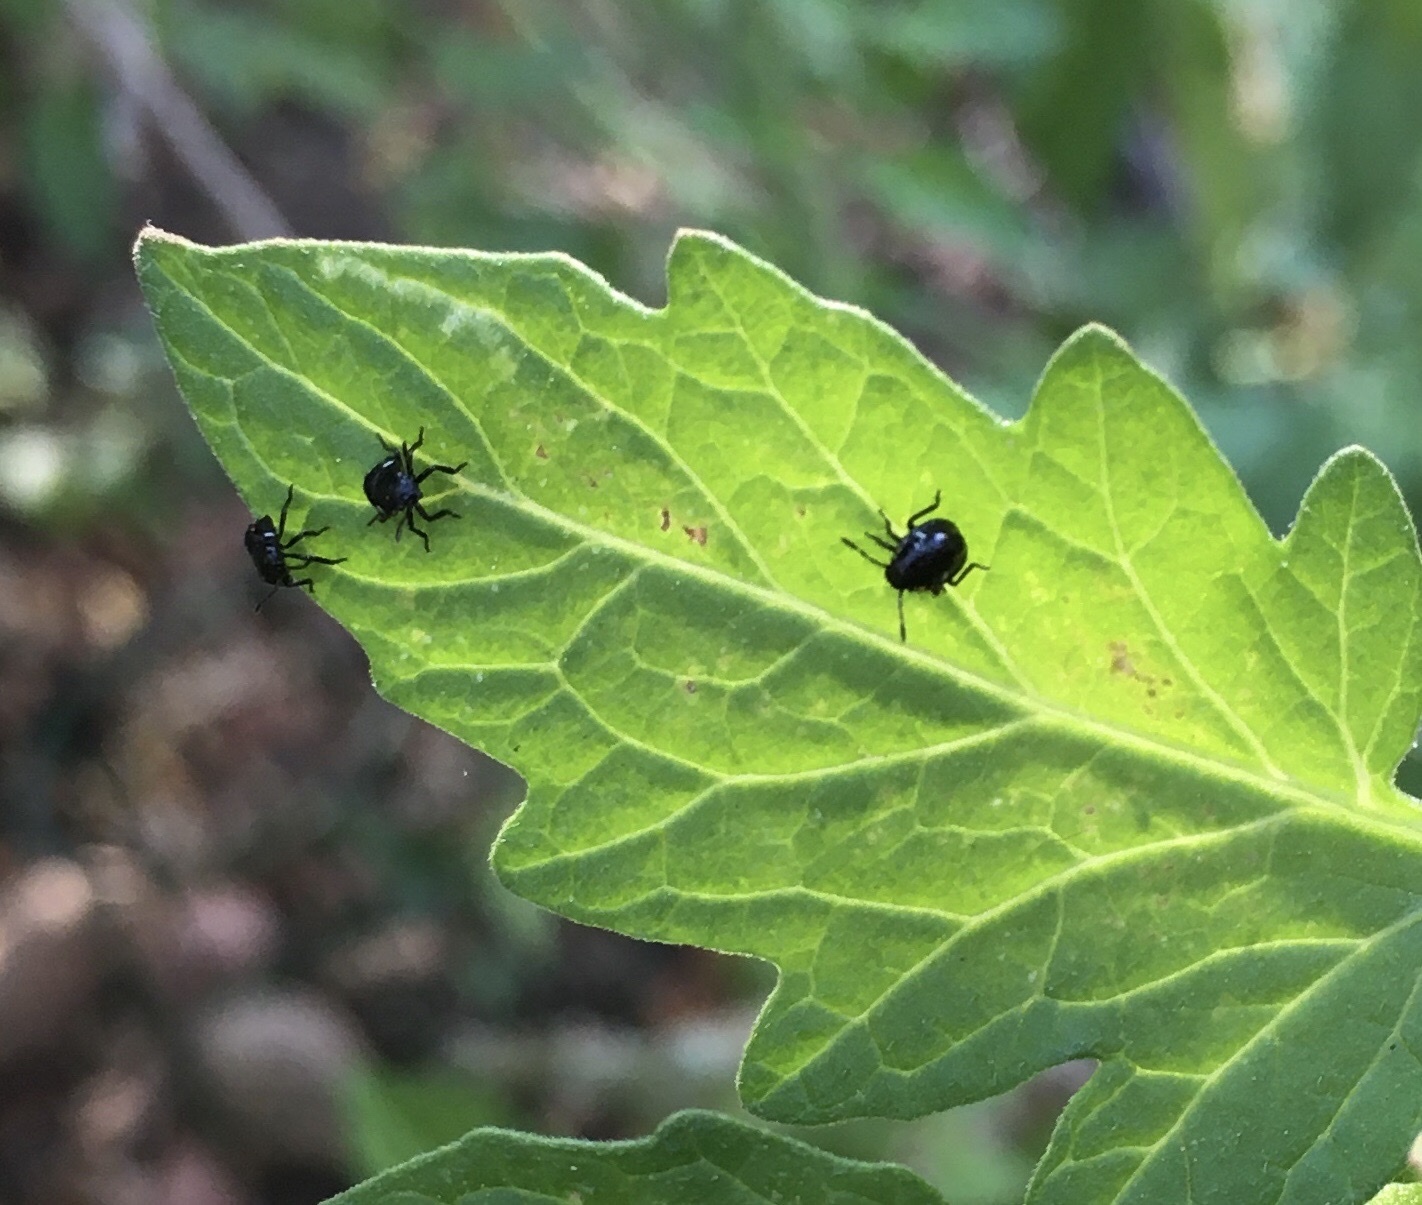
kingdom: Animalia
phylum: Arthropoda
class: Insecta
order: Hemiptera
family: Pentatomidae
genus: Nezara
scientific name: Nezara viridula
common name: Southern green stink bug
